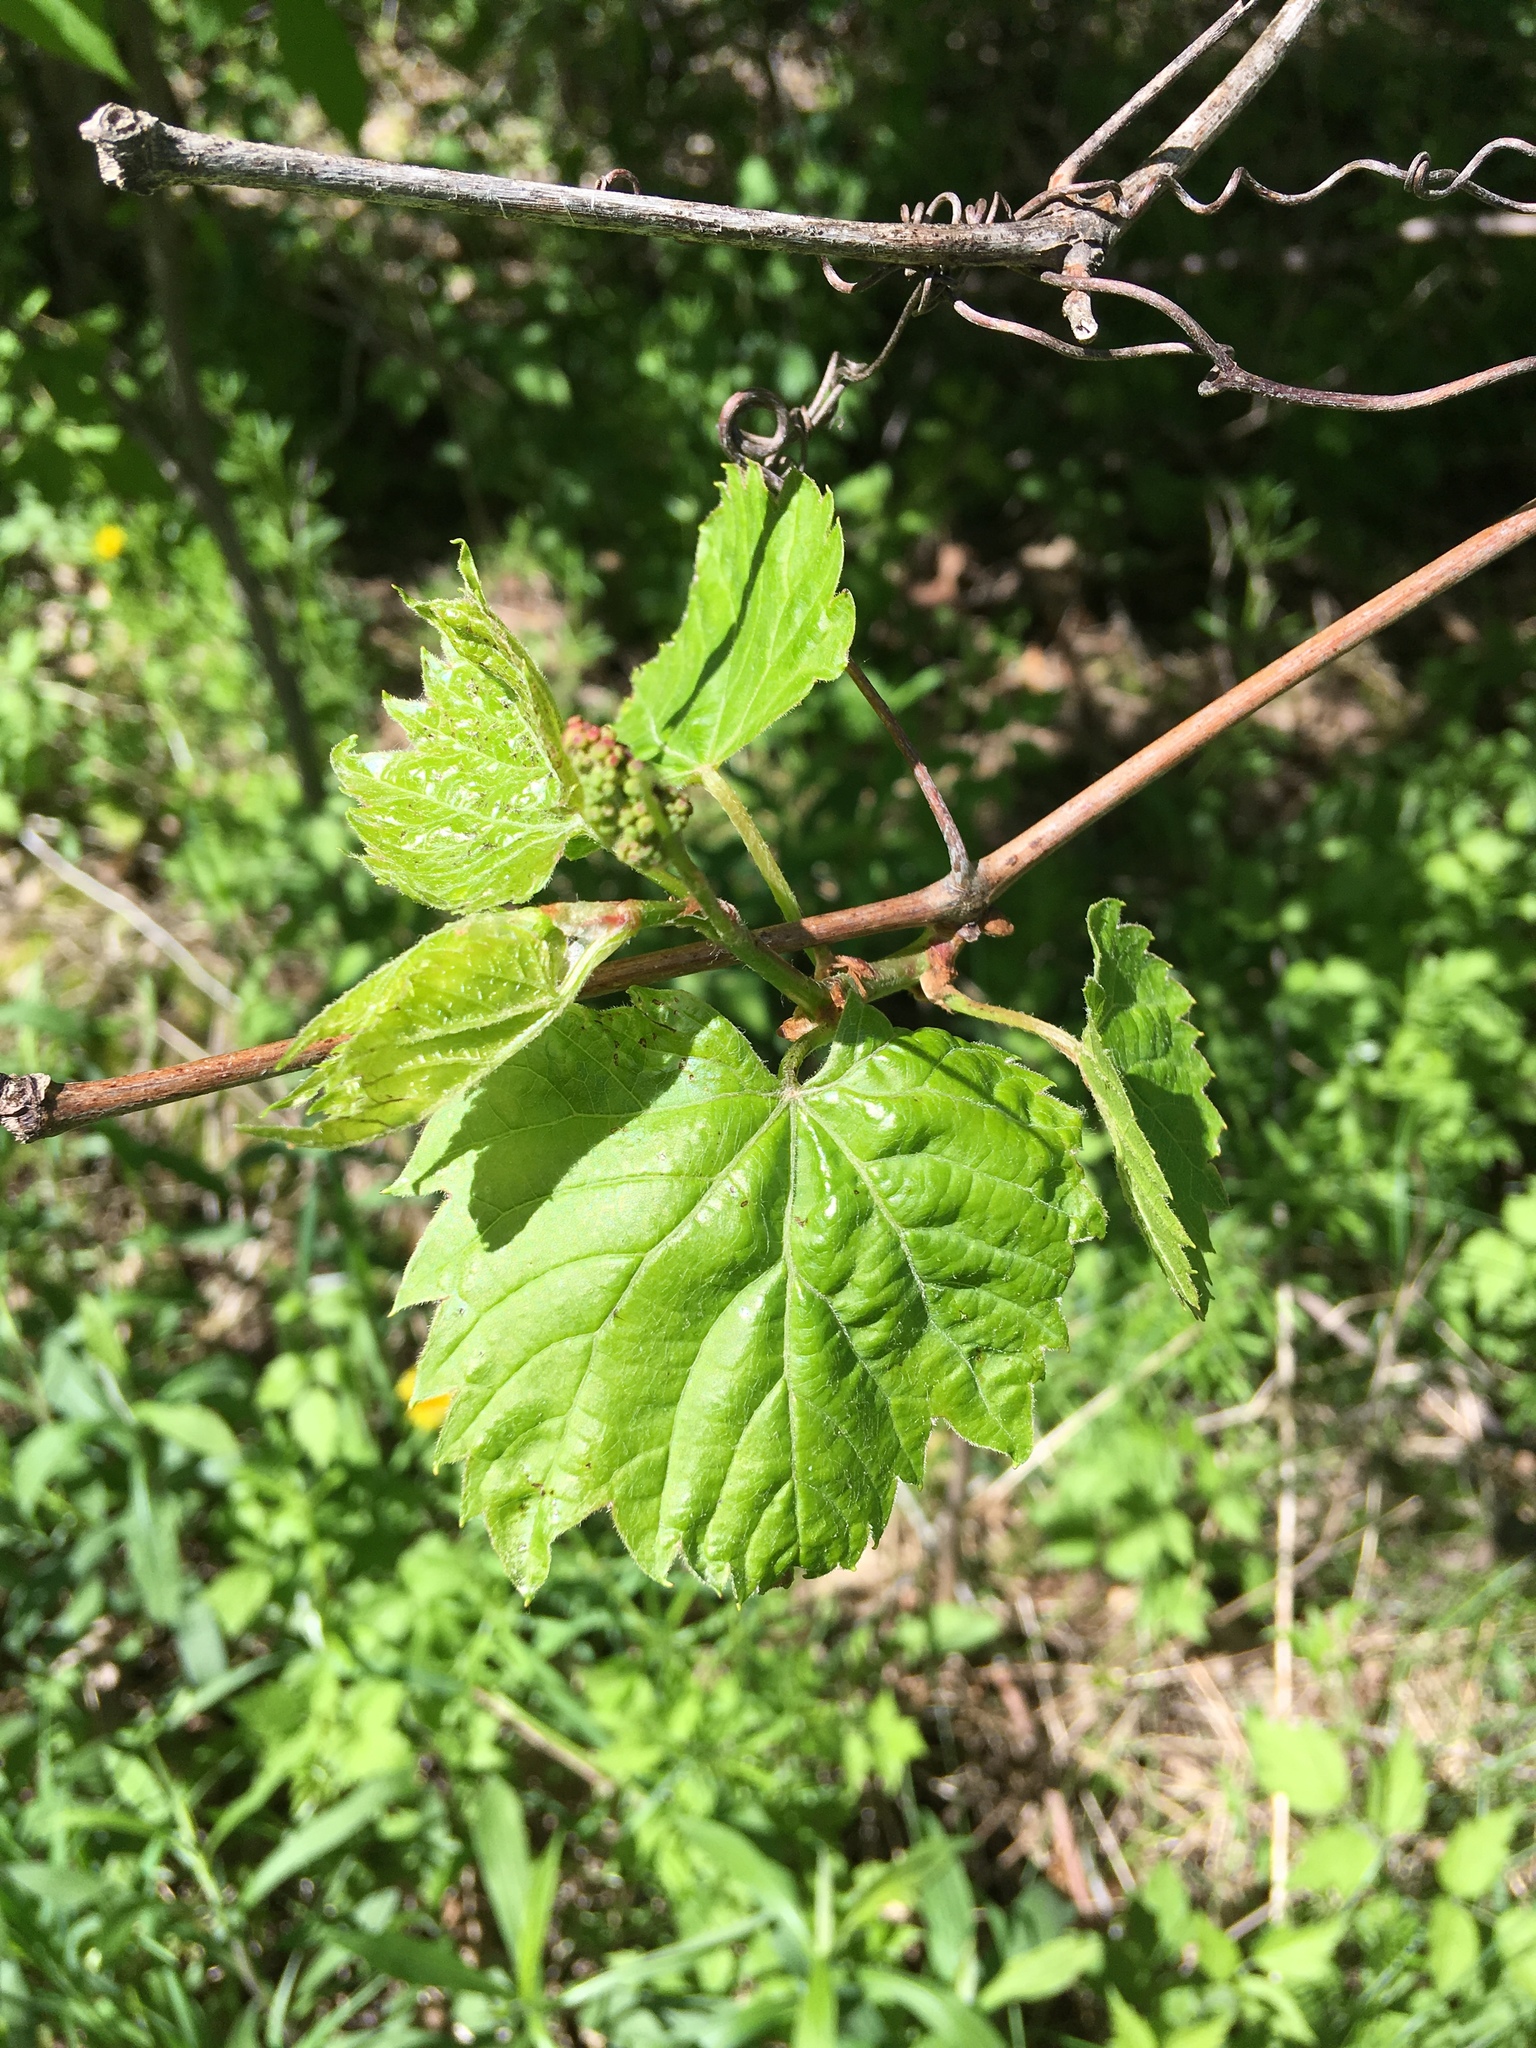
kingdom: Plantae
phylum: Tracheophyta
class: Magnoliopsida
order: Vitales
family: Vitaceae
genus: Vitis
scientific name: Vitis riparia
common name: Frost grape
